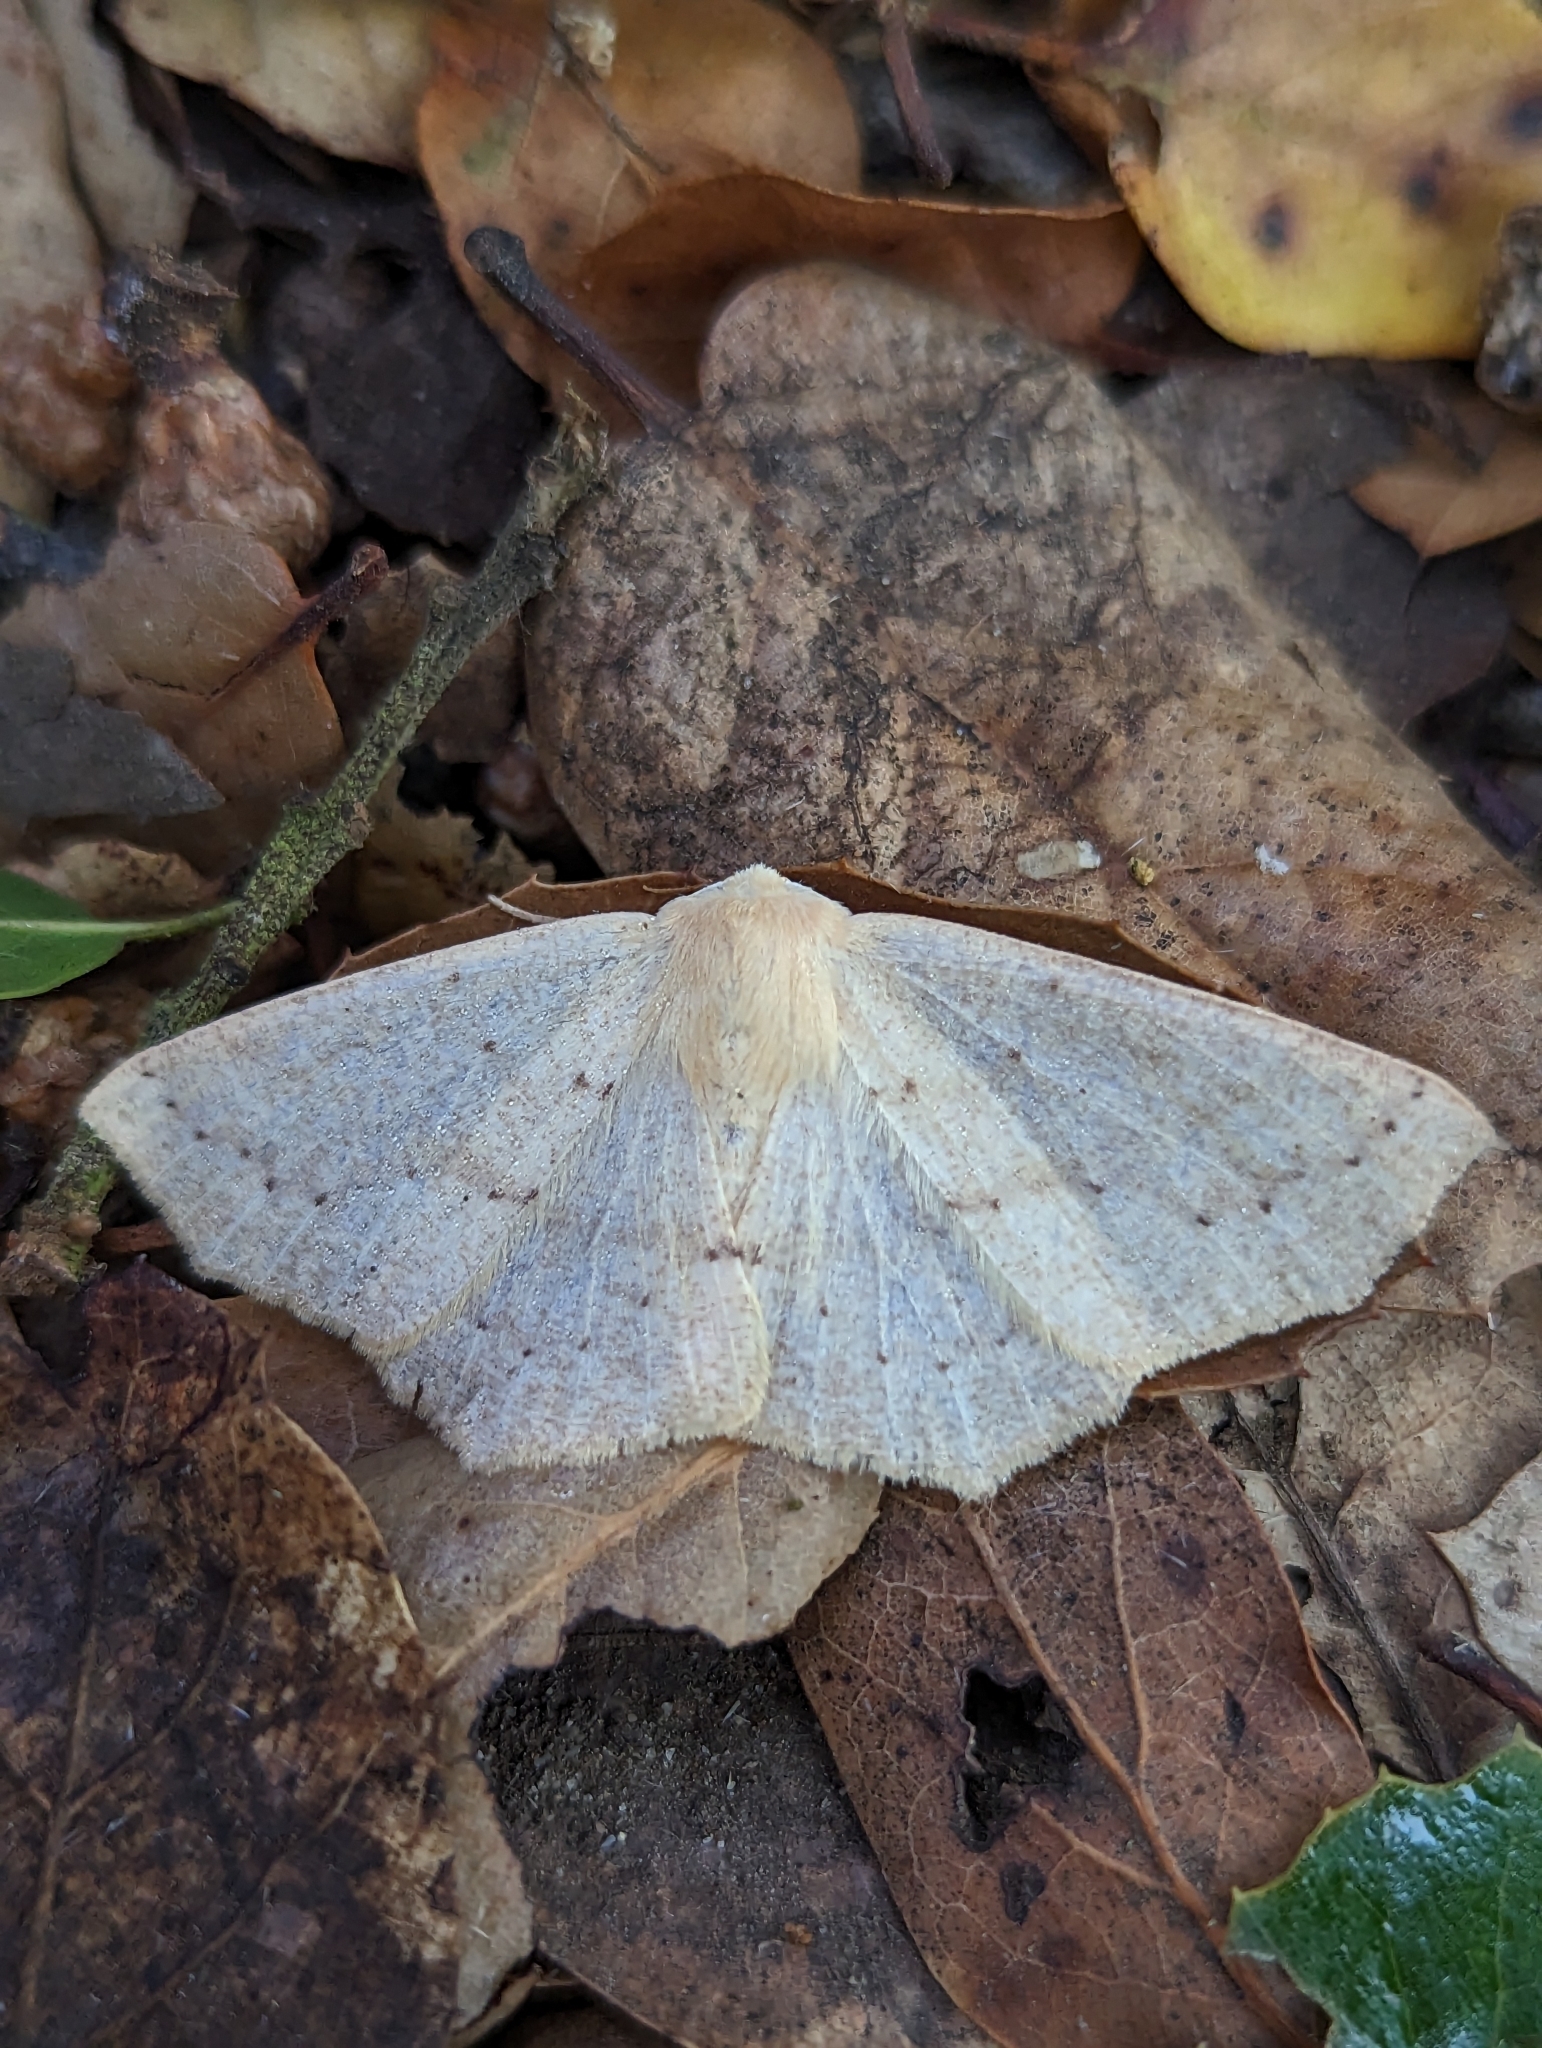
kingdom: Animalia
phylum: Arthropoda
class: Insecta
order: Lepidoptera
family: Geometridae
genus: Sabulodes
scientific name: Sabulodes aegrotata
